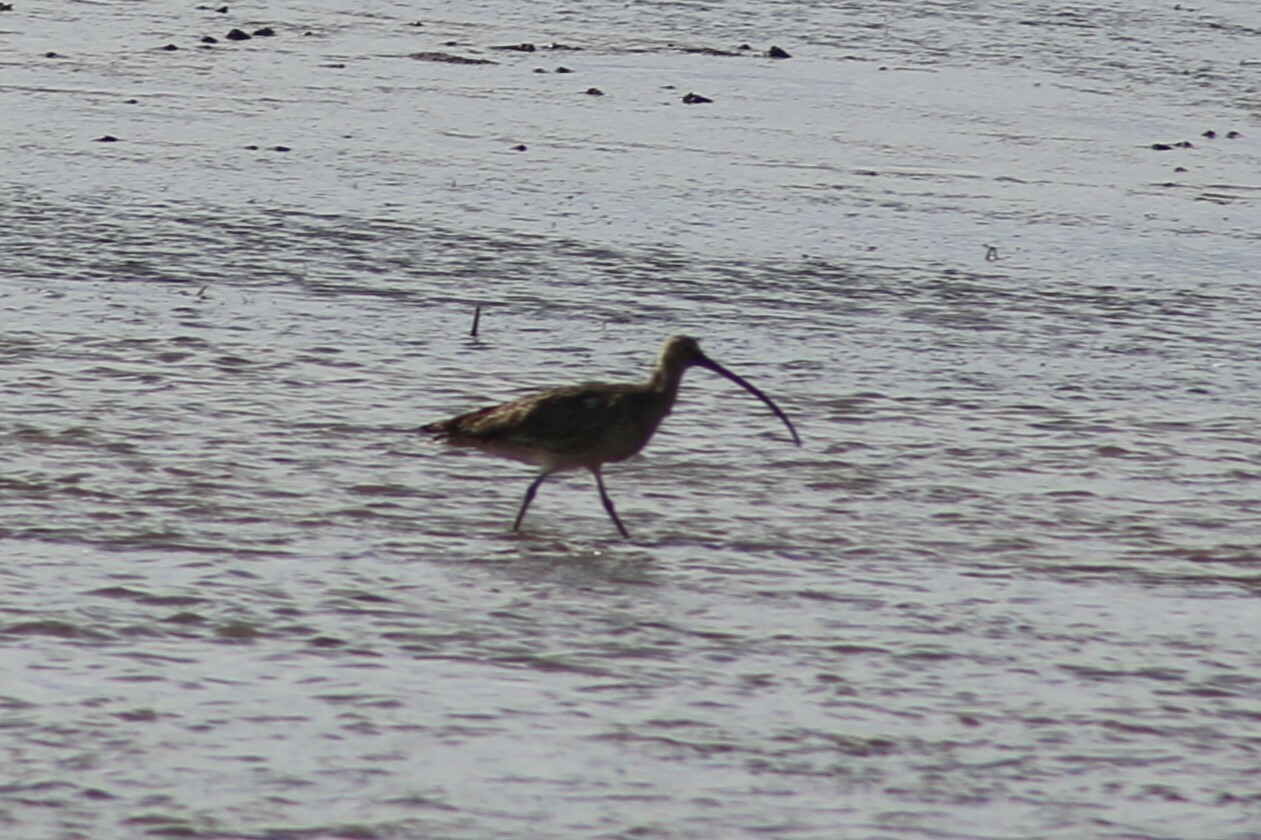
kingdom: Animalia
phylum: Chordata
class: Aves
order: Charadriiformes
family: Scolopacidae
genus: Numenius
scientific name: Numenius madagascariensis
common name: Far eastern curlew
